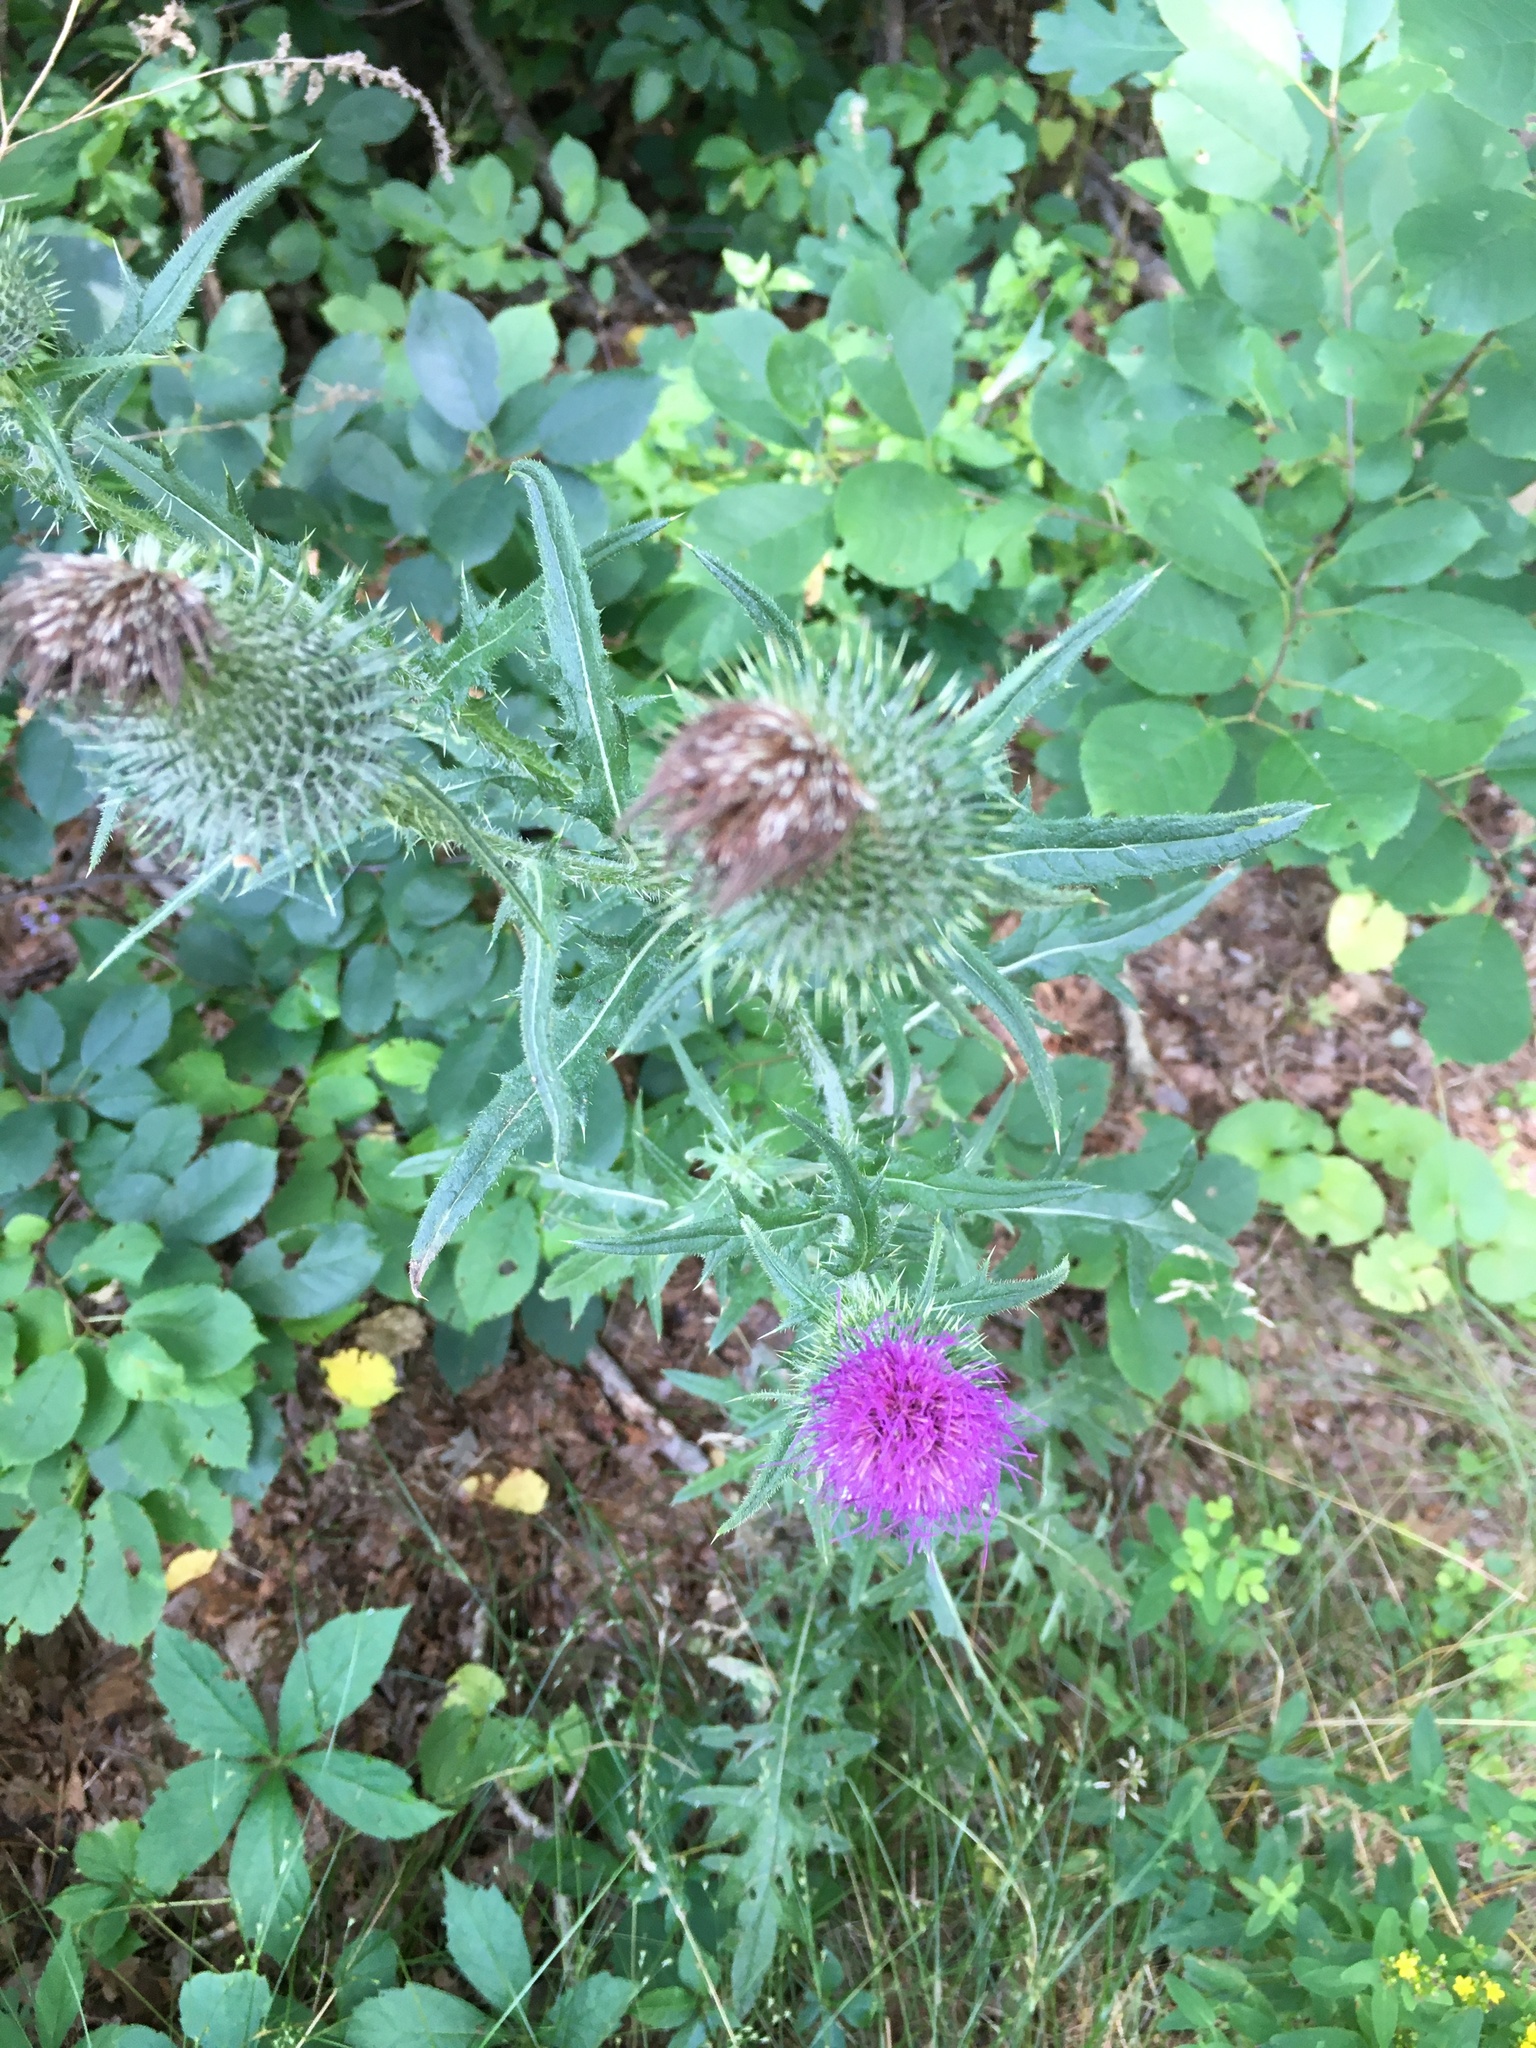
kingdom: Plantae
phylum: Tracheophyta
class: Magnoliopsida
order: Asterales
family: Asteraceae
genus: Cirsium
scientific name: Cirsium vulgare
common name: Bull thistle
